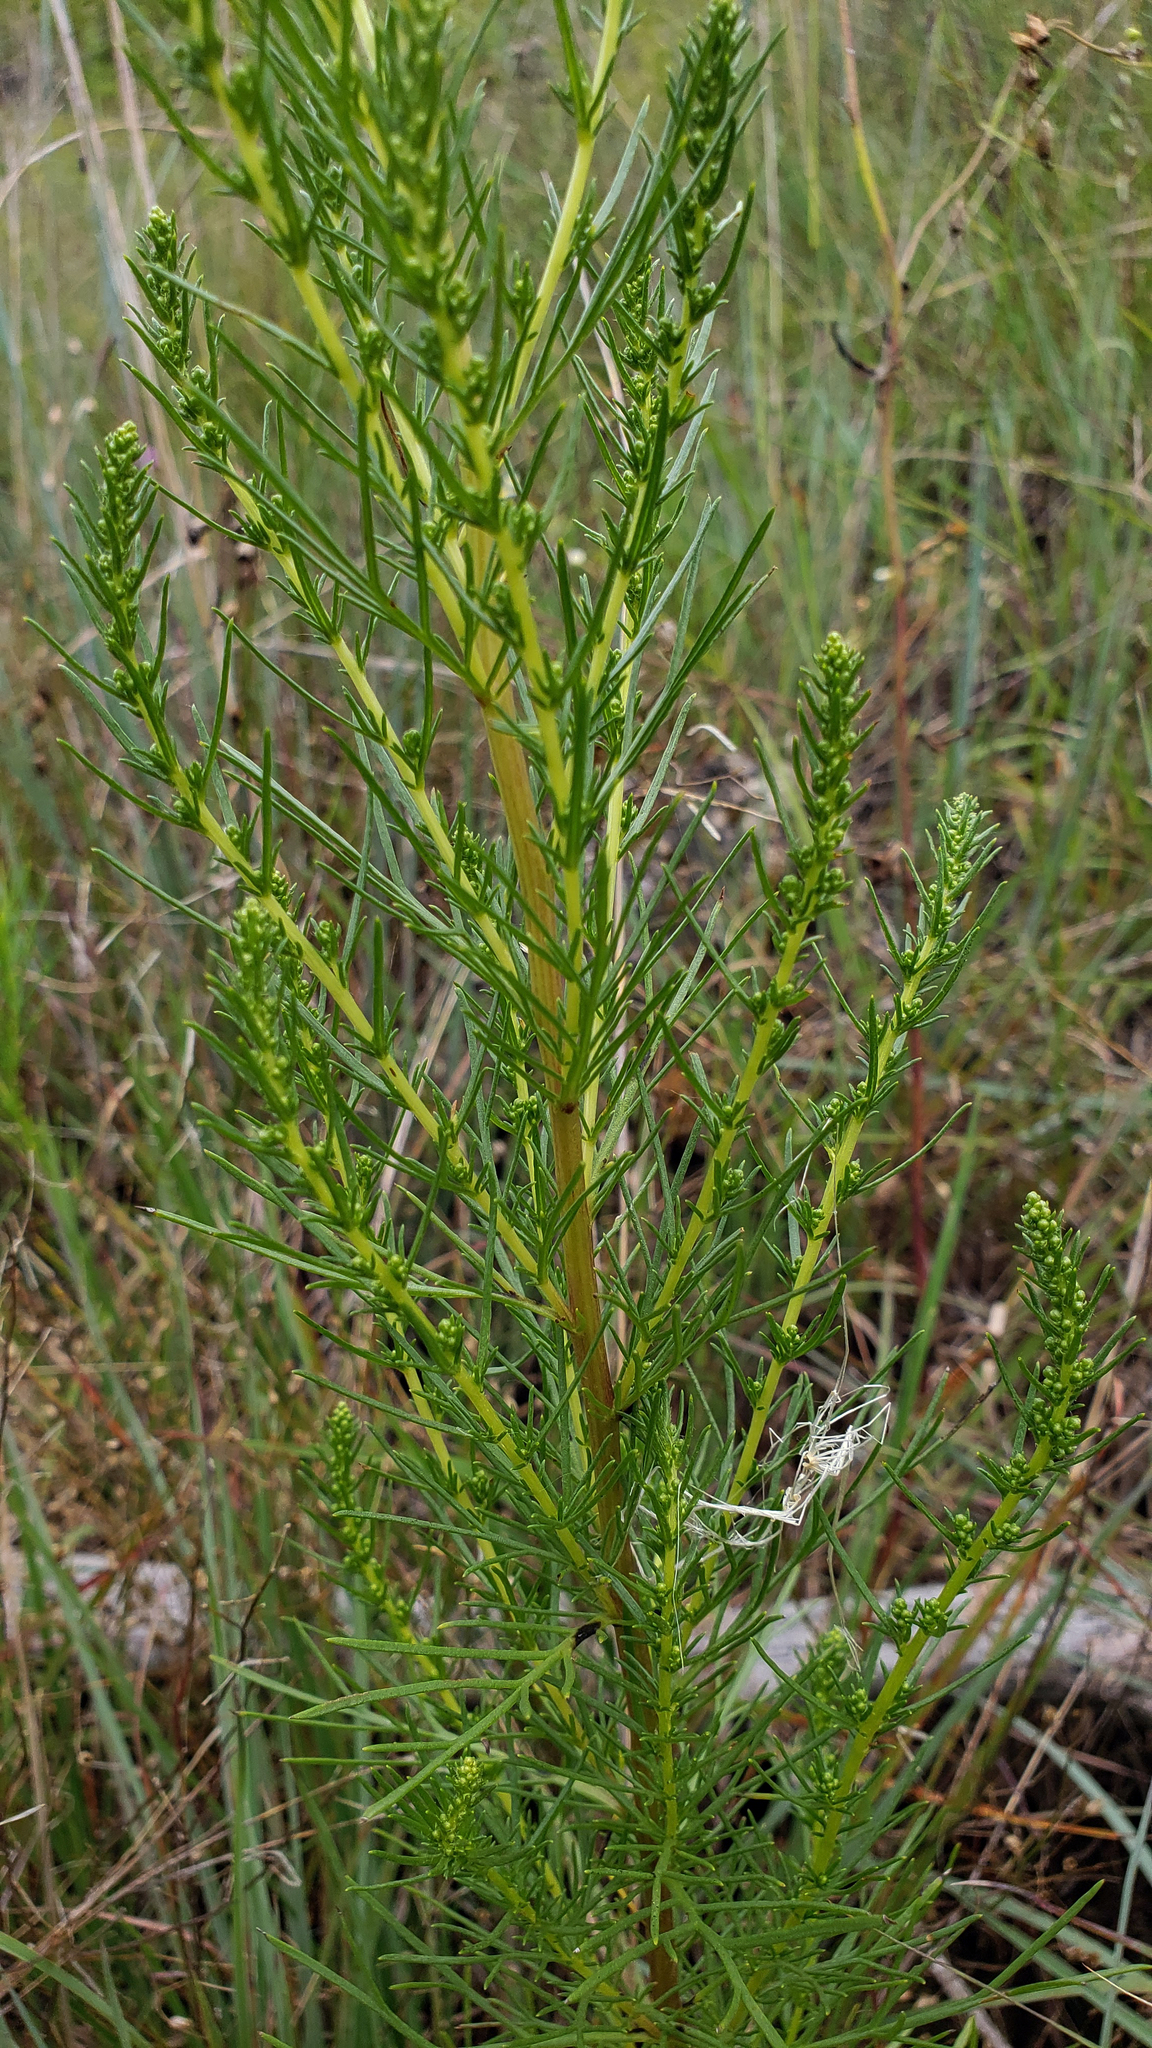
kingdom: Plantae
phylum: Tracheophyta
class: Magnoliopsida
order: Asterales
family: Asteraceae
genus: Artemisia
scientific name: Artemisia campestris
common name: Field wormwood
